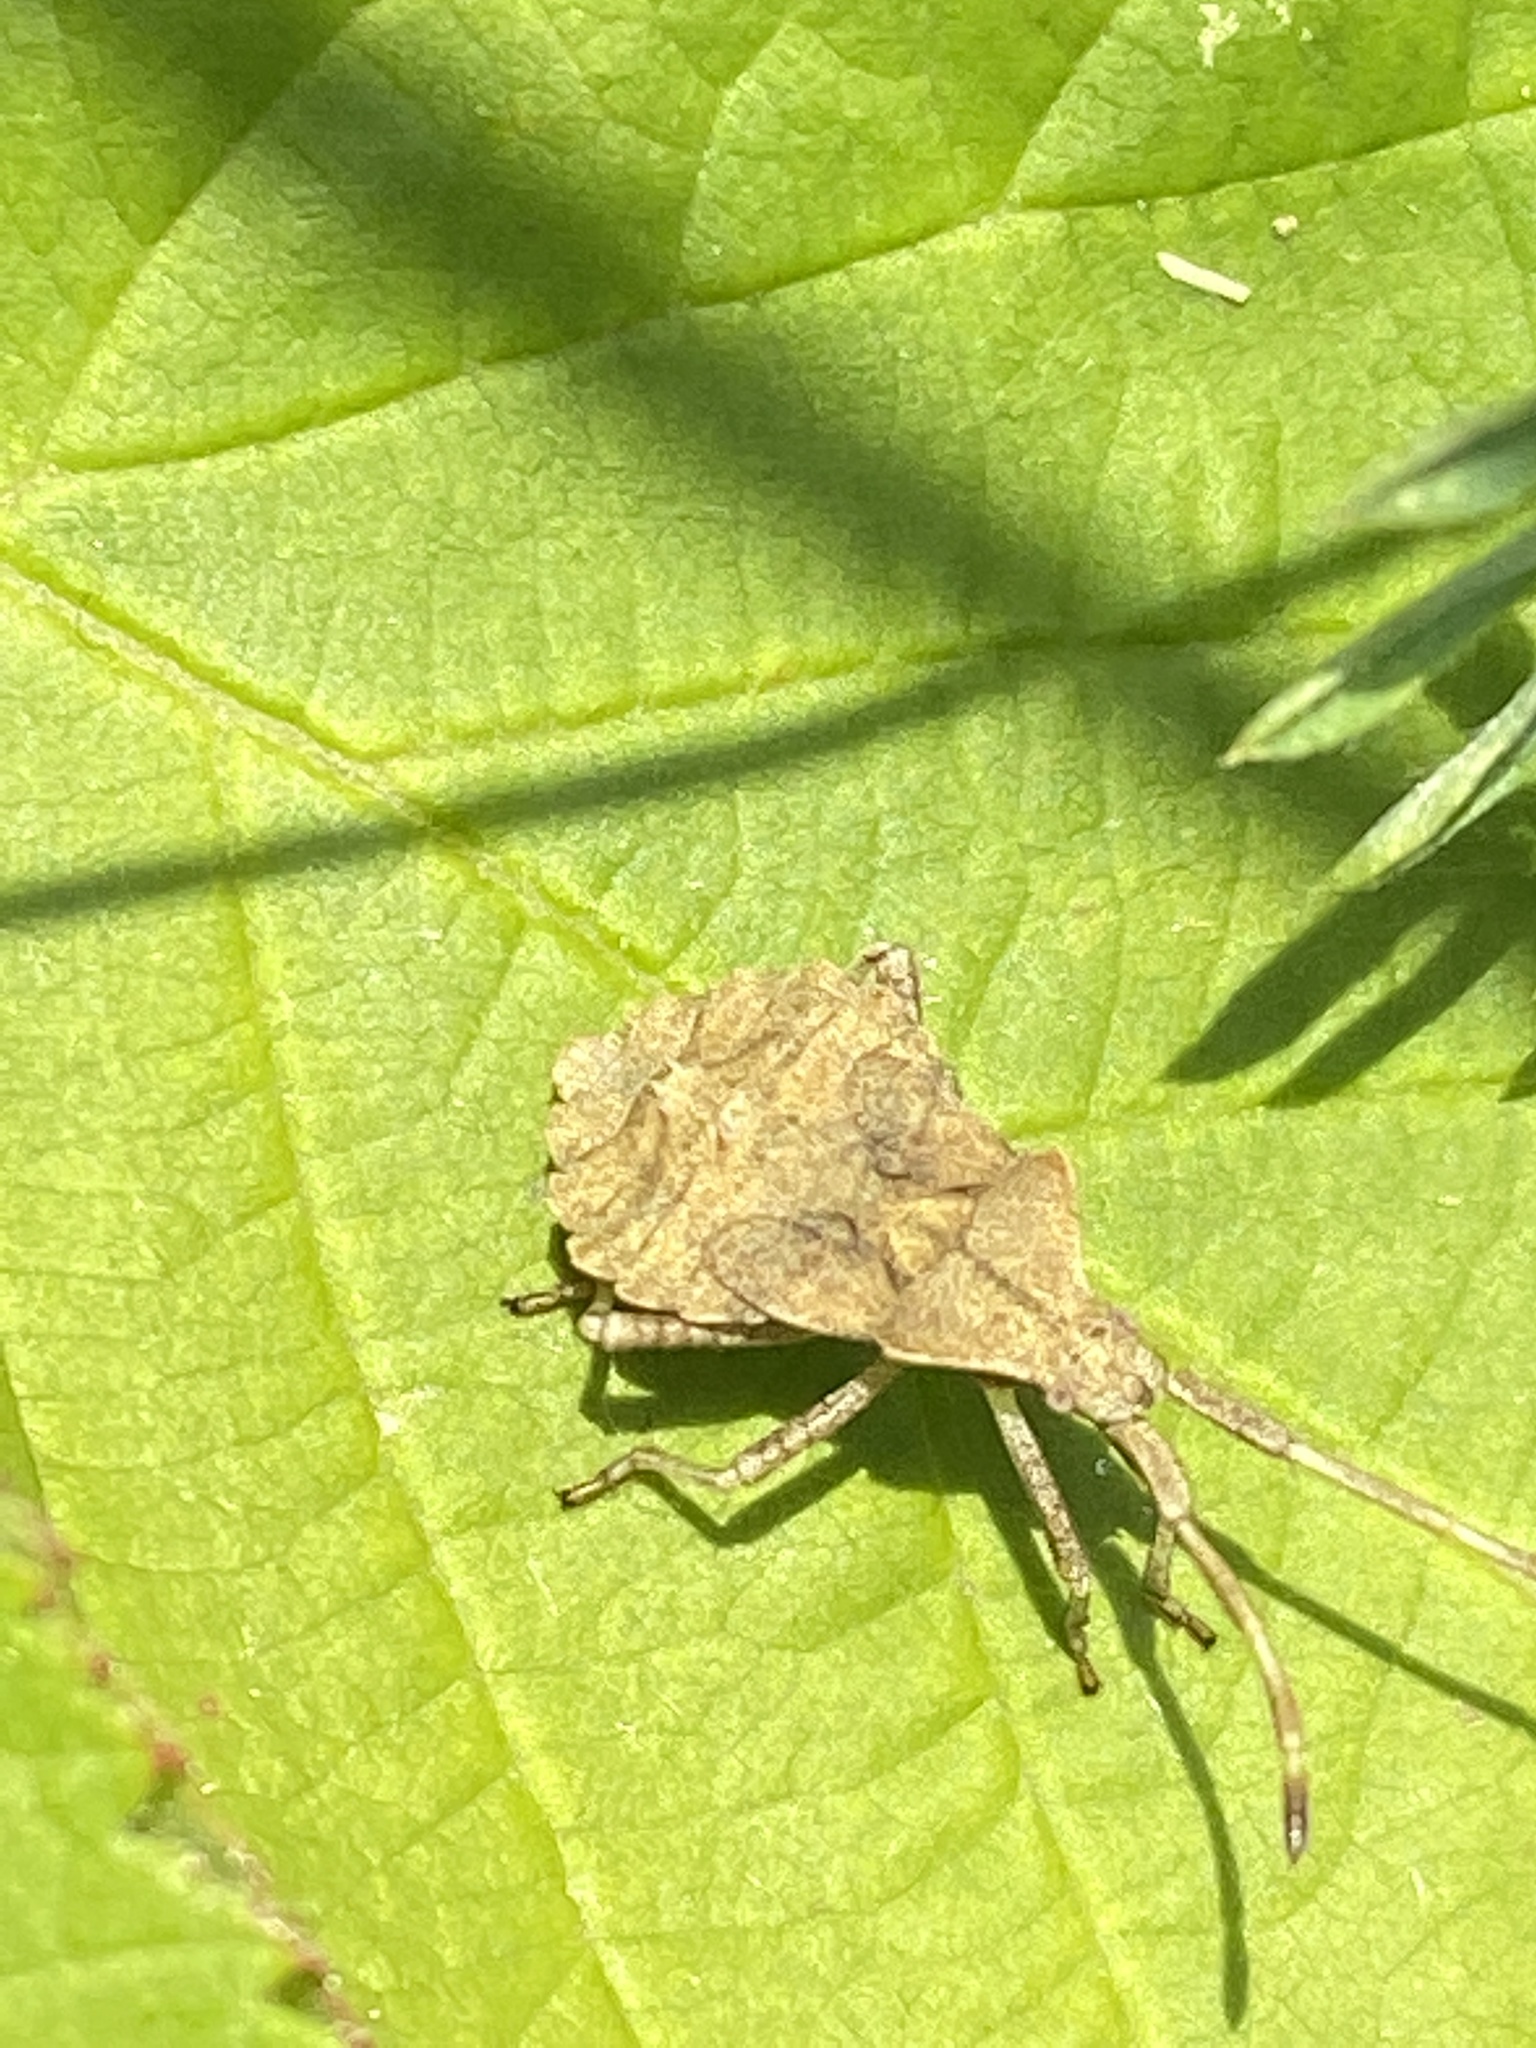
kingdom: Animalia
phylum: Arthropoda
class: Insecta
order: Hemiptera
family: Coreidae
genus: Coreus
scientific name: Coreus marginatus
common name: Dock bug
